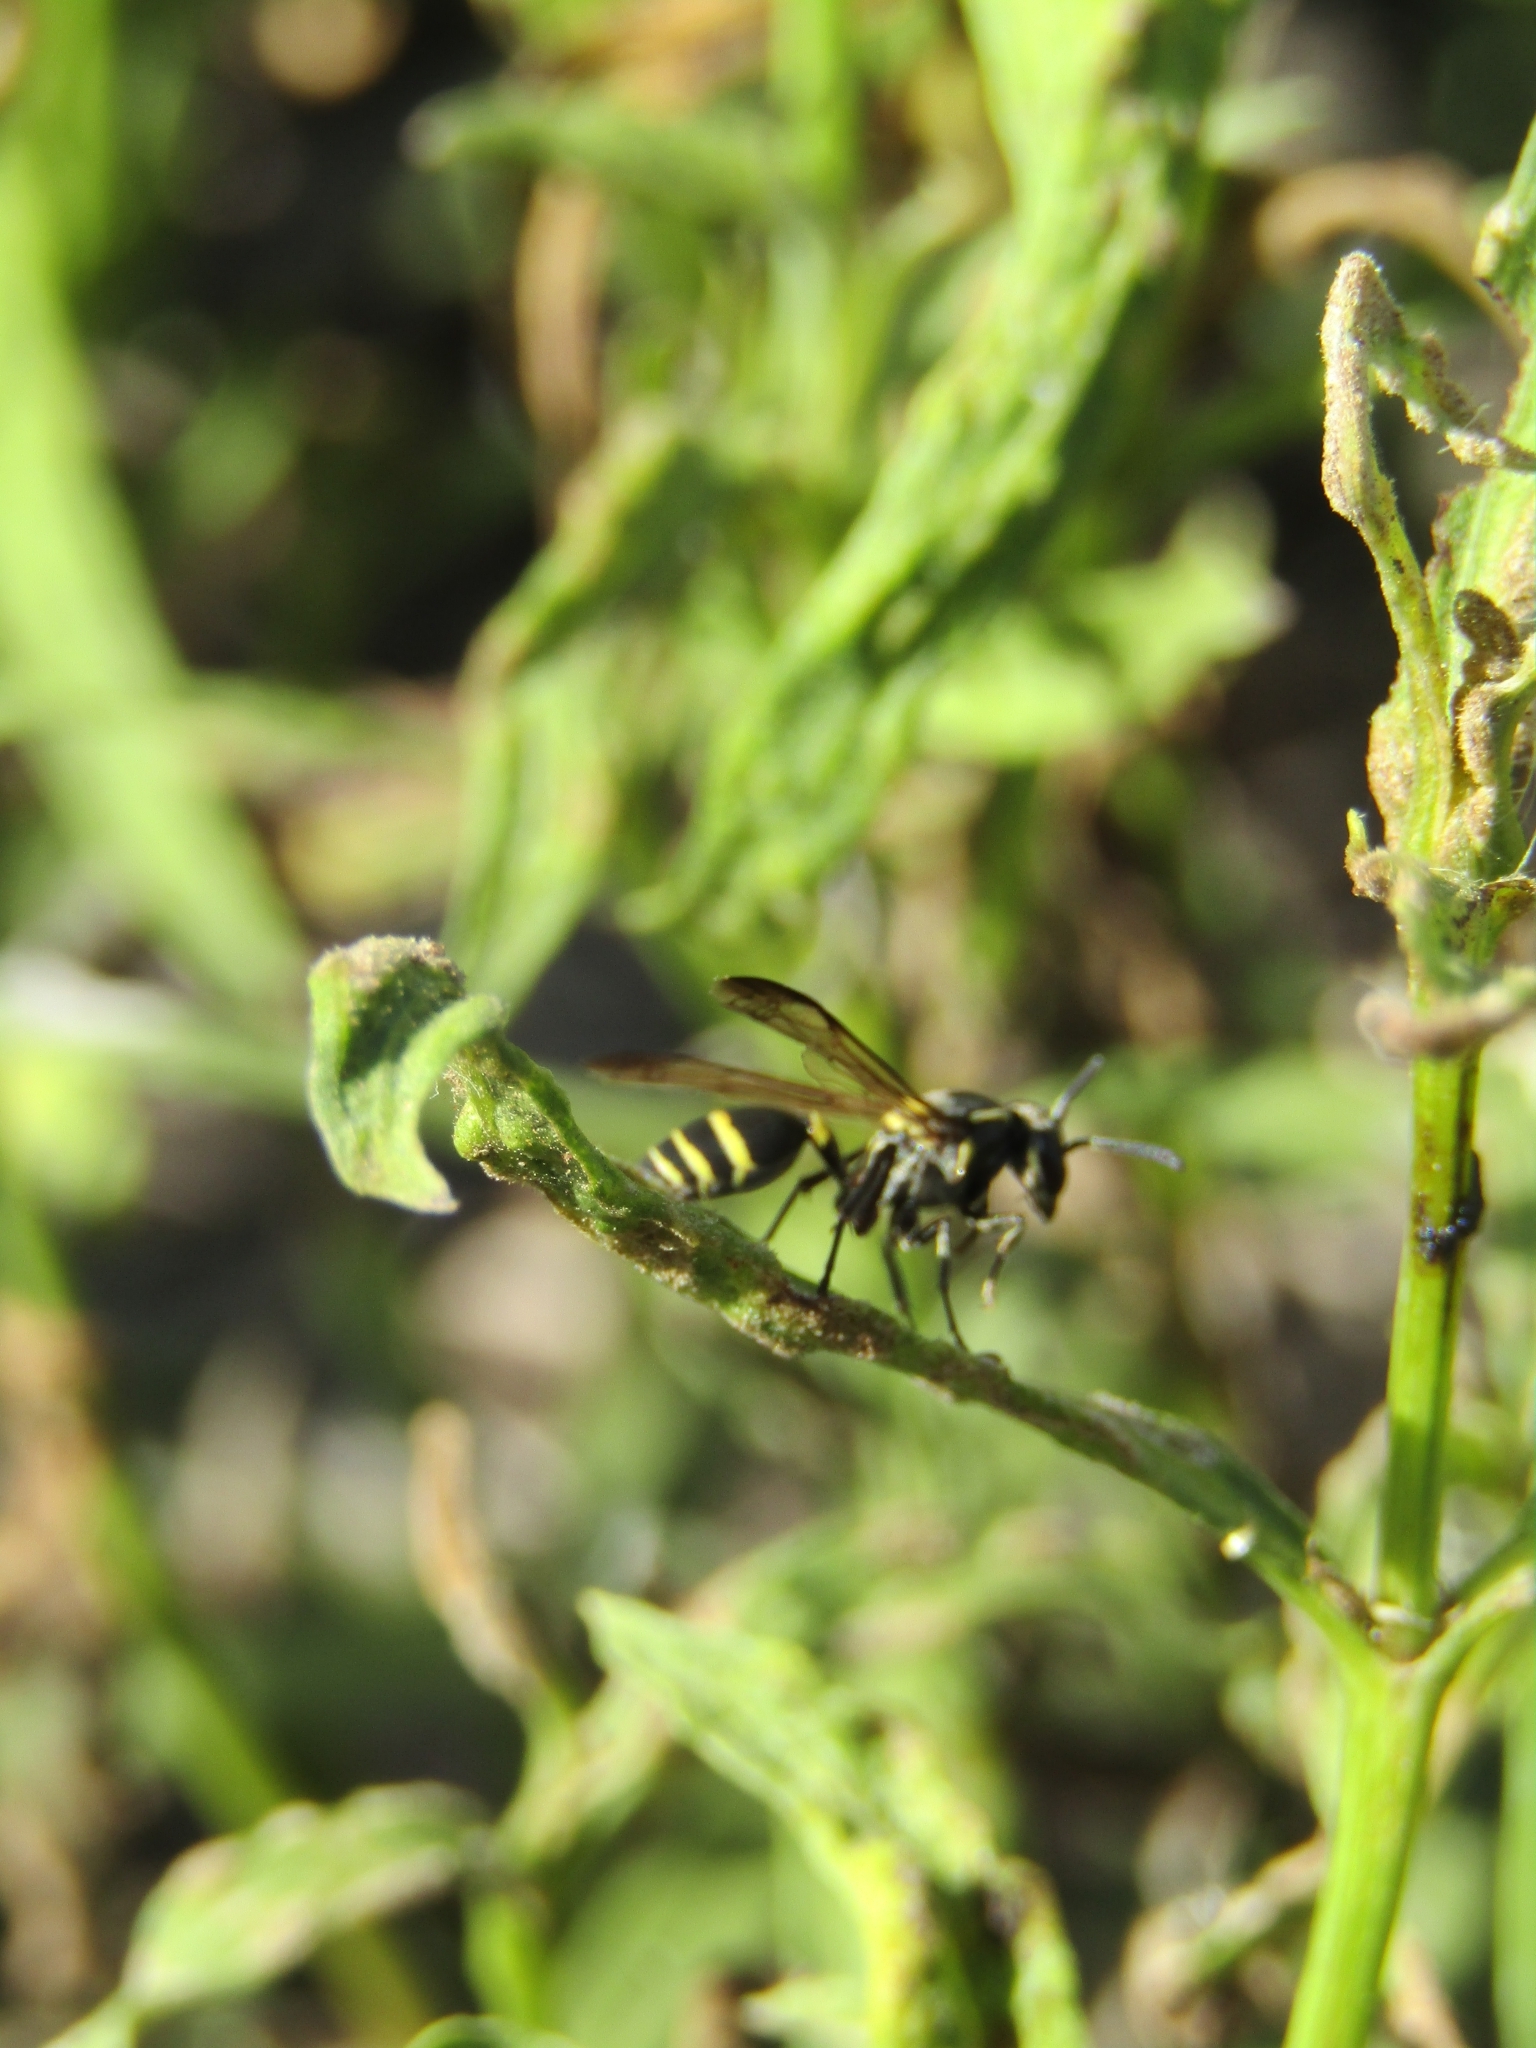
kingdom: Animalia
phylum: Arthropoda
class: Insecta
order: Hymenoptera
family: Eumenidae
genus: Polybia
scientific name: Polybia occidentalis
